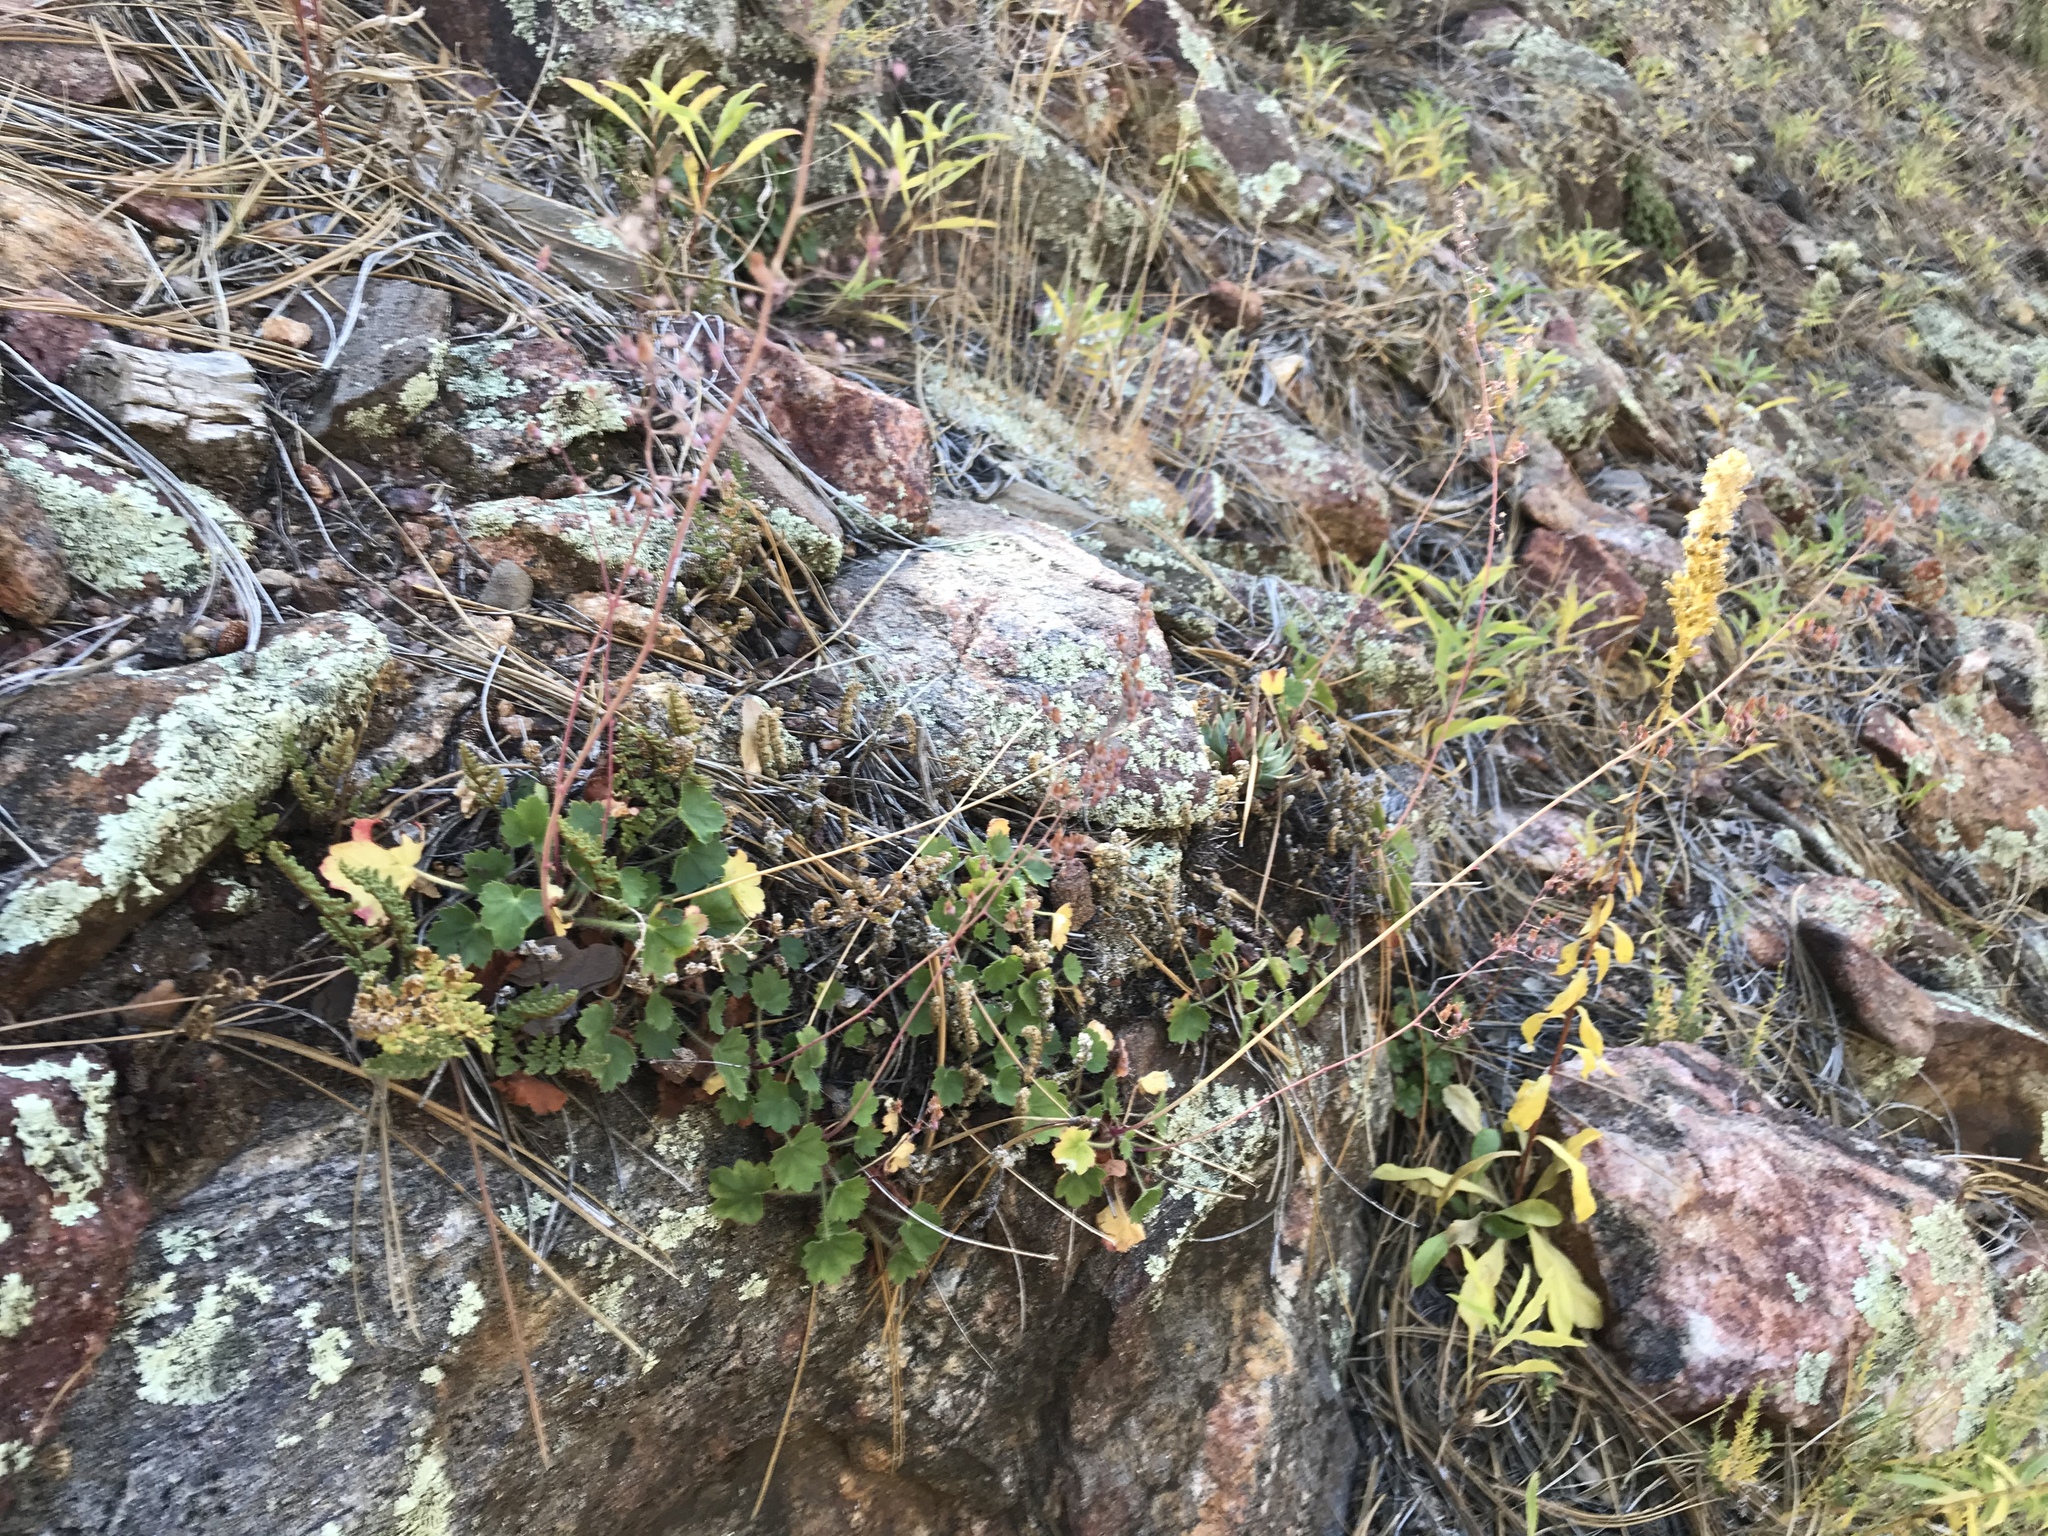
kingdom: Plantae
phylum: Tracheophyta
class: Magnoliopsida
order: Saxifragales
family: Saxifragaceae
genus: Heuchera
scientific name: Heuchera rubescens
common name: Jack-o'the-rocks
